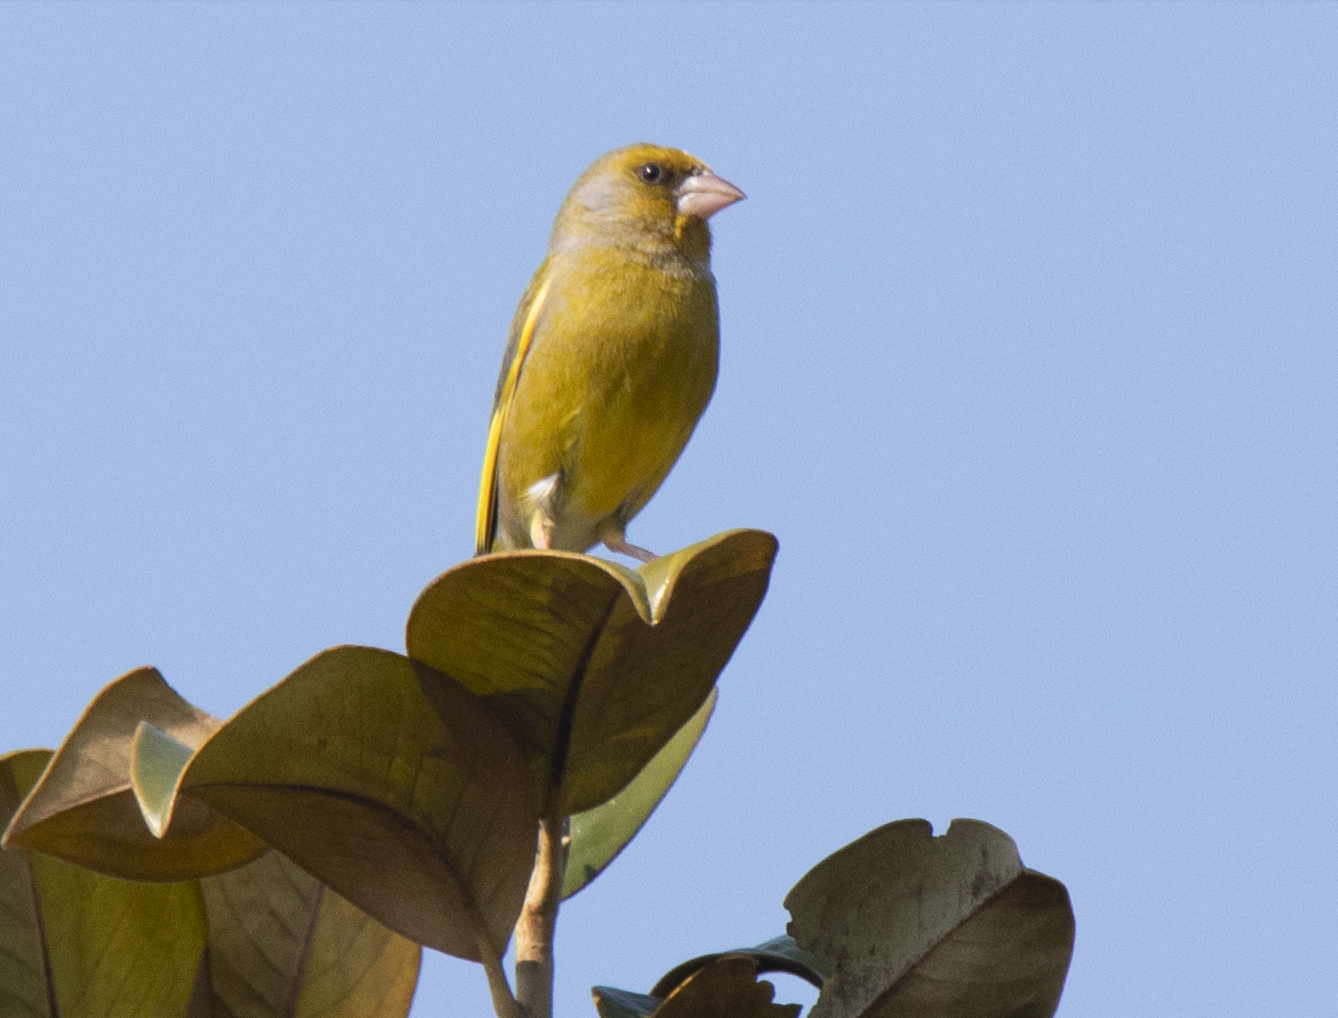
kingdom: Plantae
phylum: Tracheophyta
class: Liliopsida
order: Poales
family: Poaceae
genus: Chloris
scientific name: Chloris chloris
